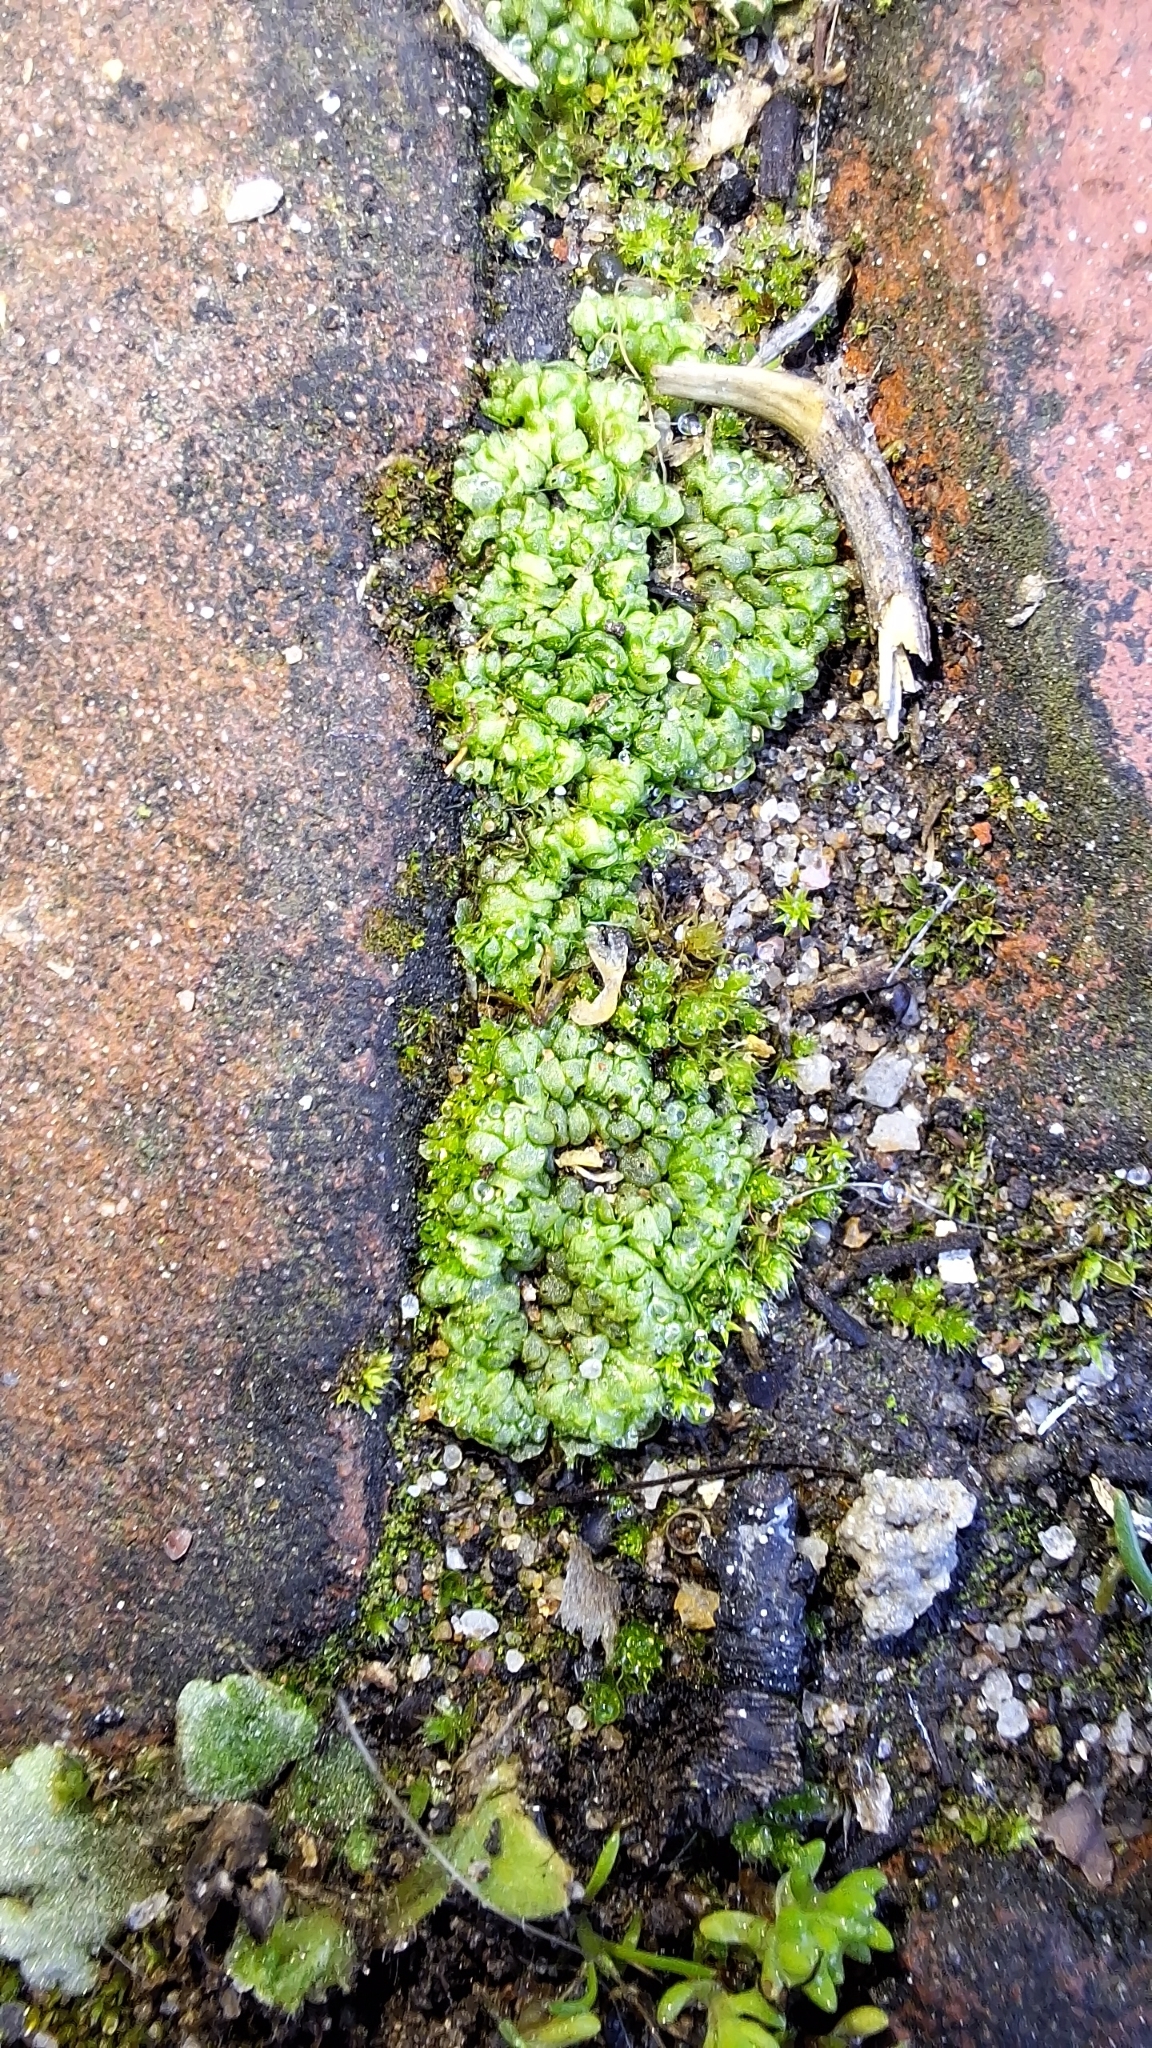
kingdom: Plantae
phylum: Marchantiophyta
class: Marchantiopsida
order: Sphaerocarpales
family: Sphaerocarpaceae
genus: Sphaerocarpos
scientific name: Sphaerocarpos texanus
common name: Texas balloonwort
